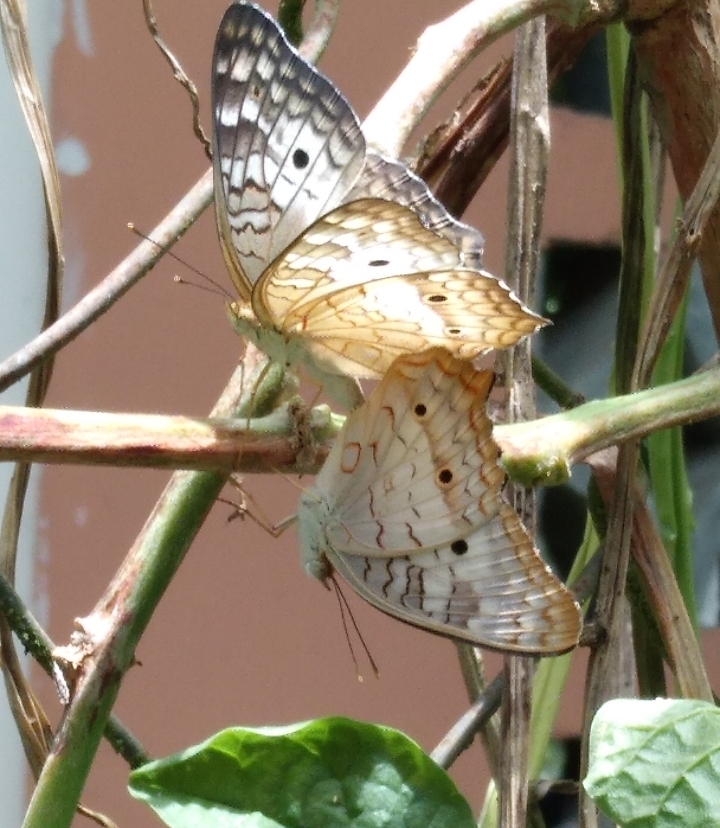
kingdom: Animalia
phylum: Arthropoda
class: Insecta
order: Lepidoptera
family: Nymphalidae
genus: Anartia
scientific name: Anartia jatrophae
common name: White peacock
